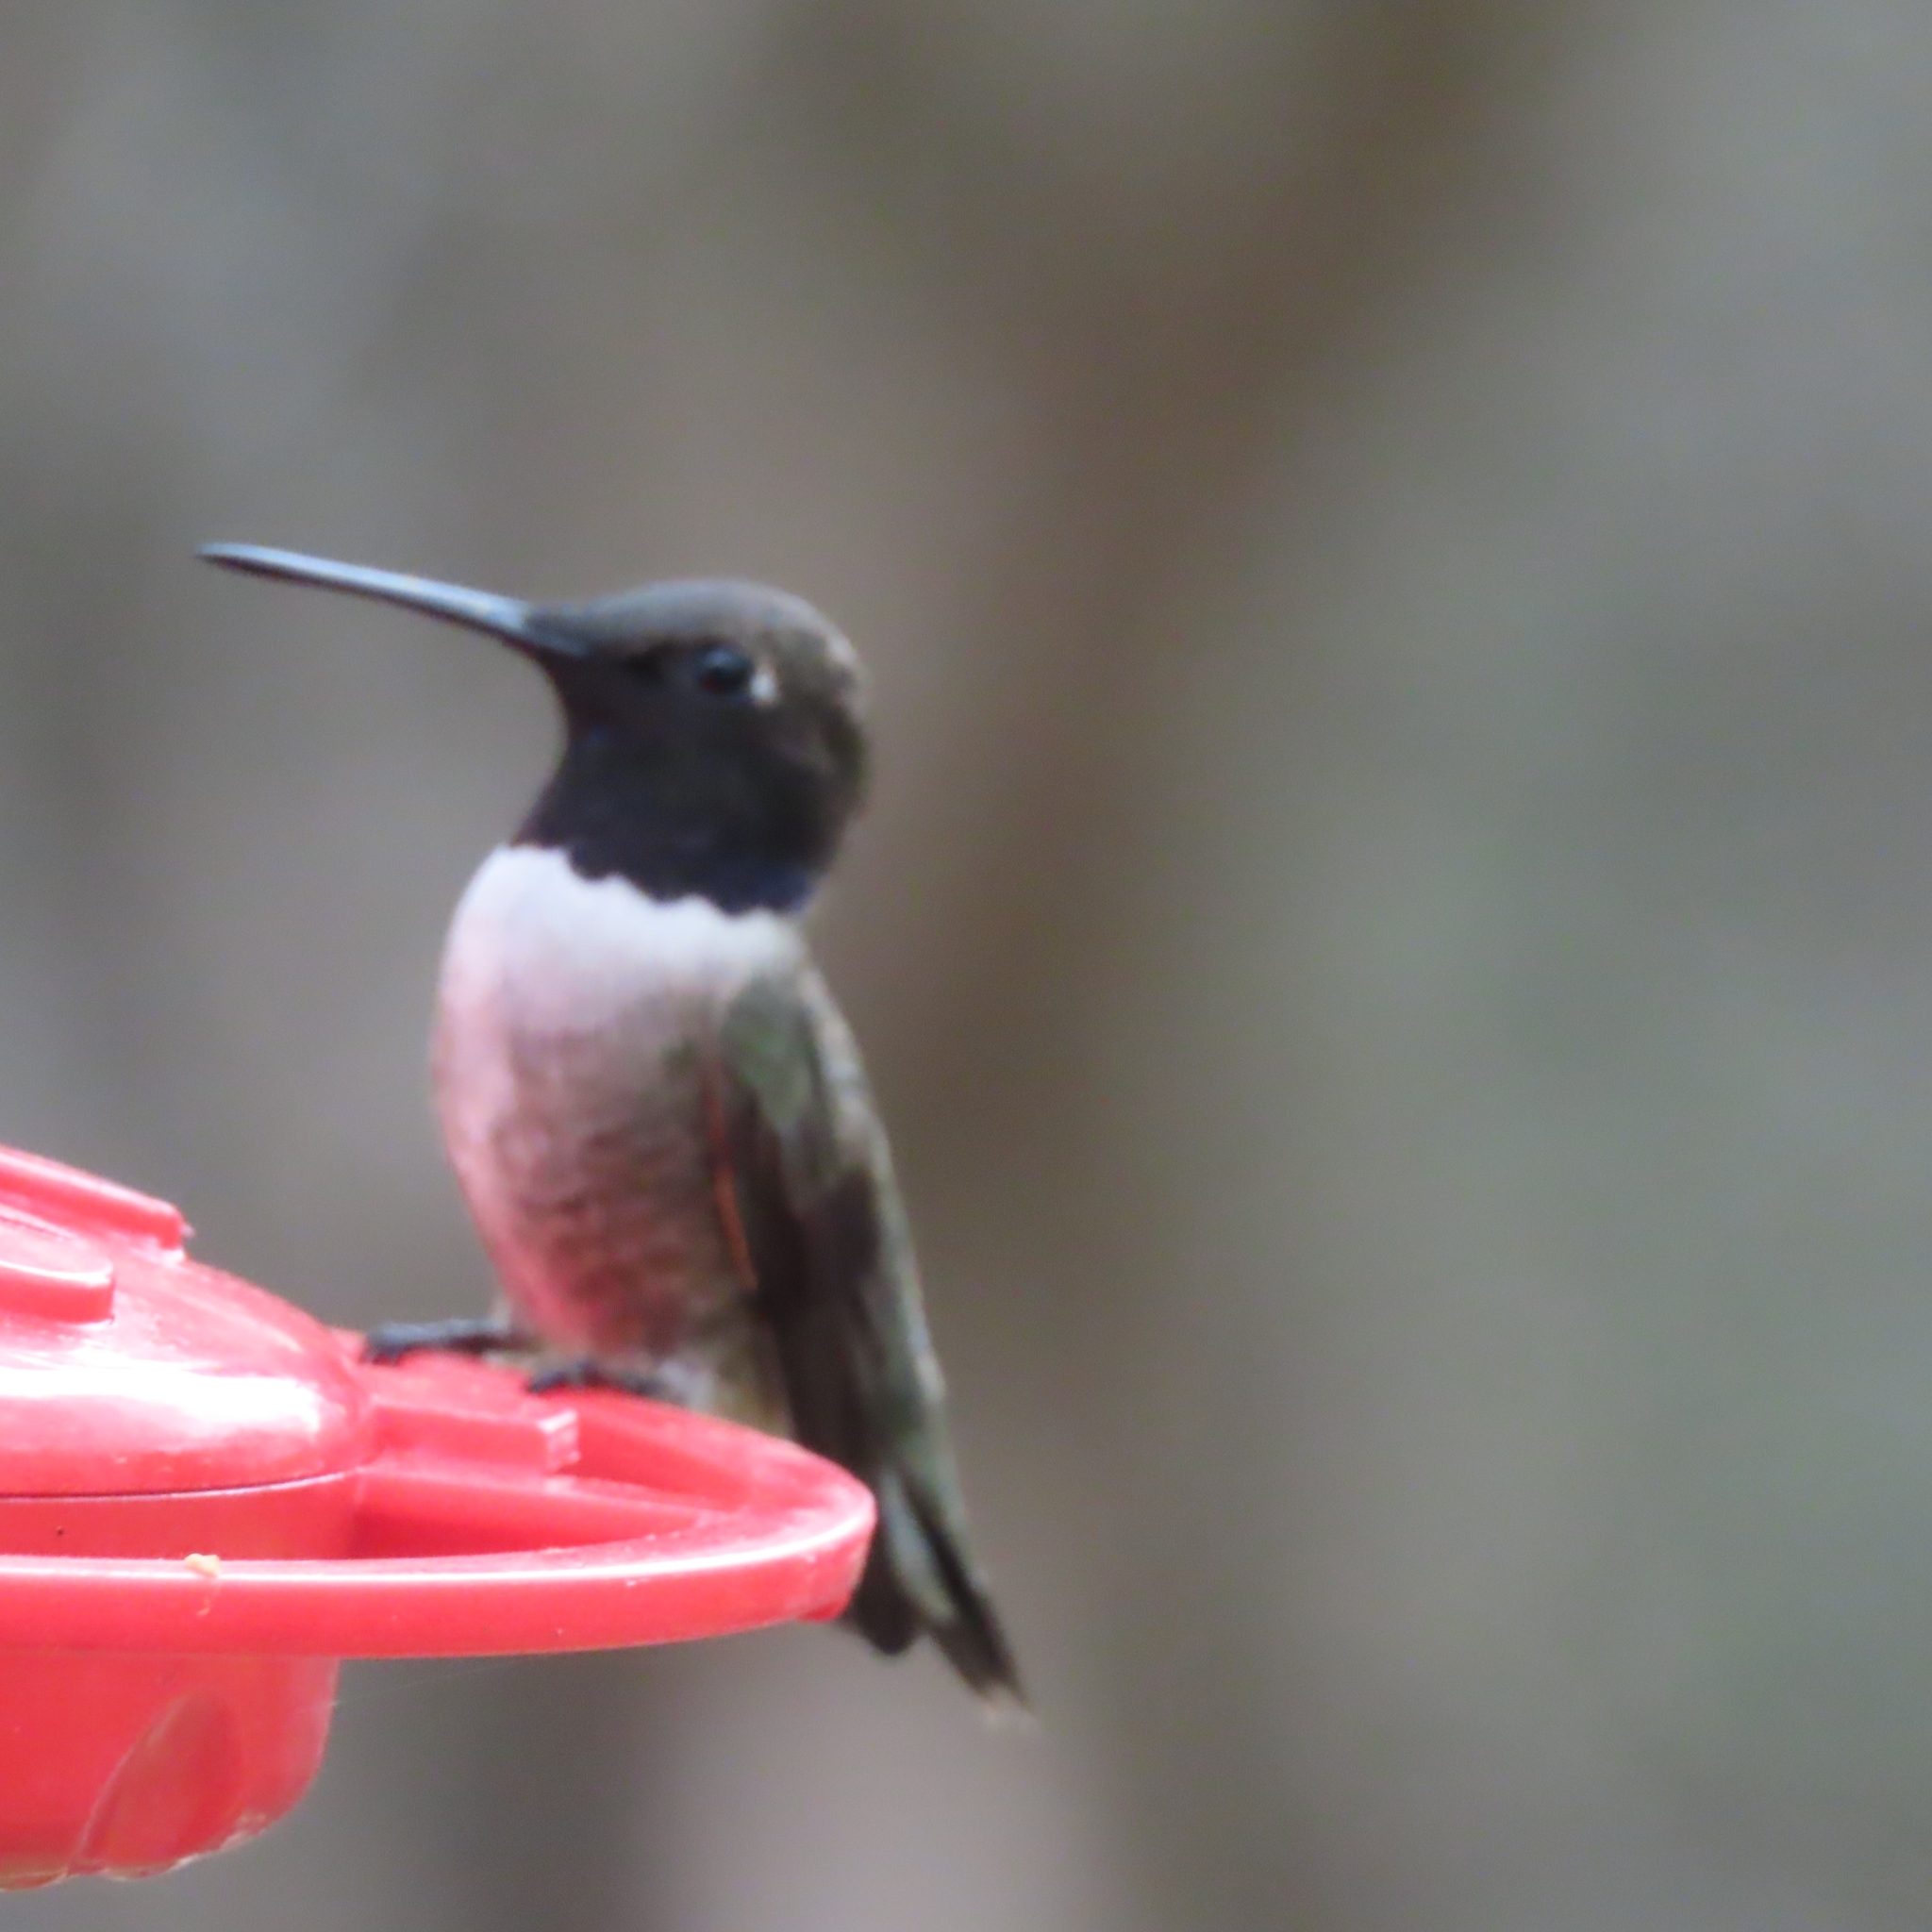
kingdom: Animalia
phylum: Chordata
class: Aves
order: Apodiformes
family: Trochilidae
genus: Archilochus
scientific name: Archilochus alexandri
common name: Black-chinned hummingbird
